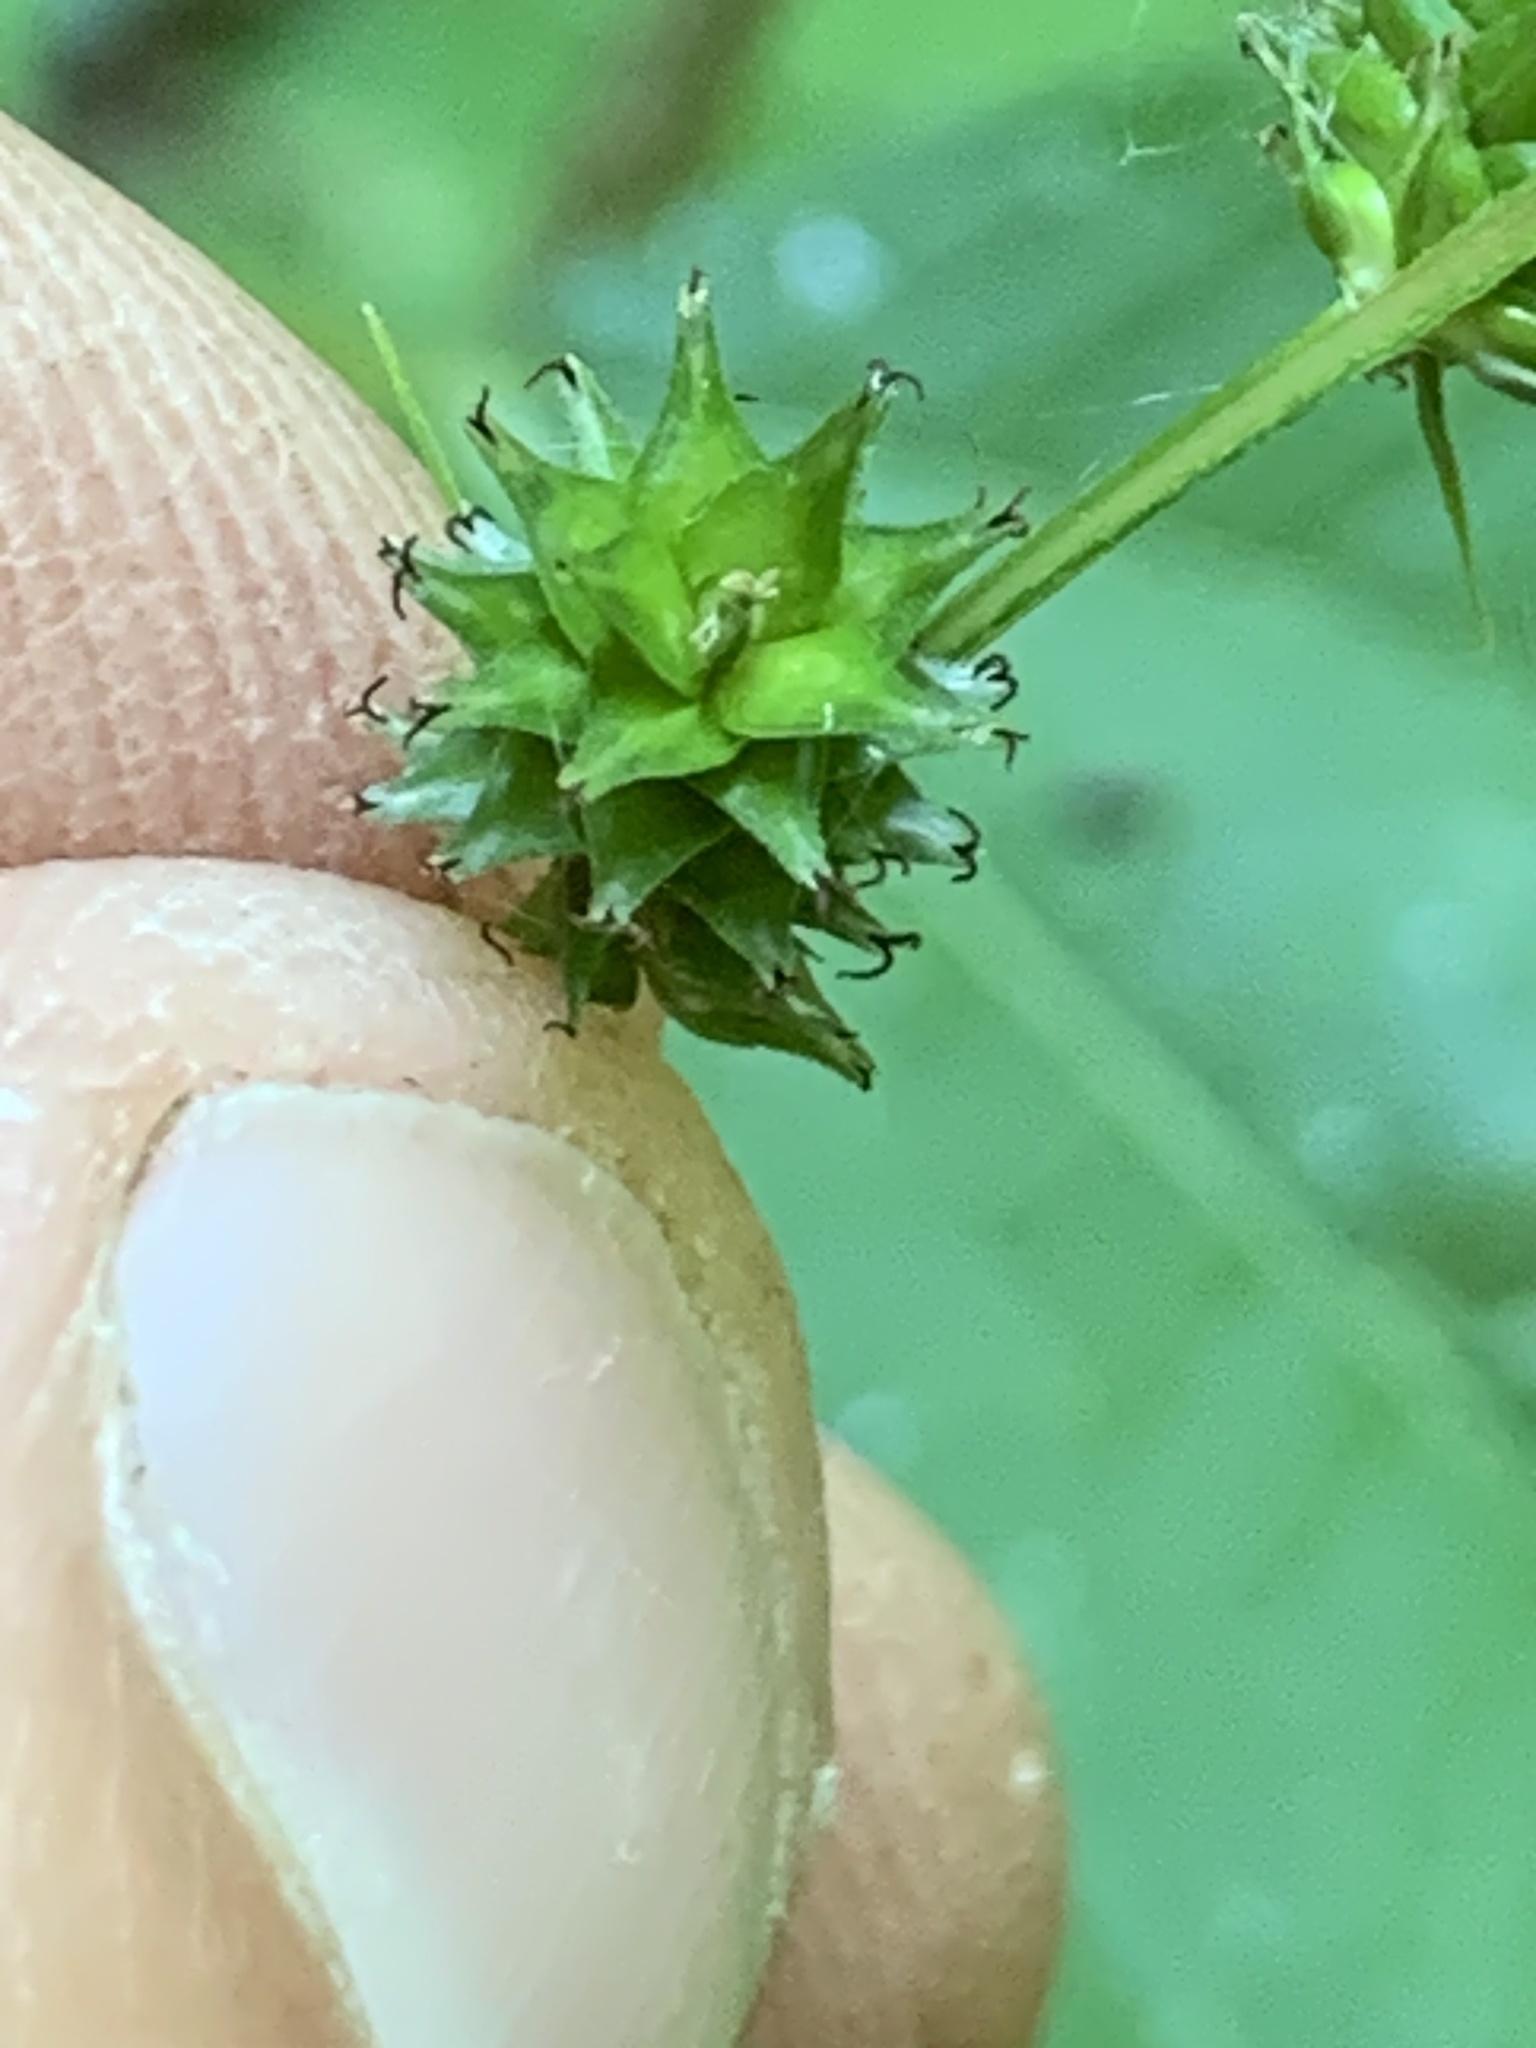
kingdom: Plantae
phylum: Tracheophyta
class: Liliopsida
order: Poales
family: Cyperaceae
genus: Carex
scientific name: Carex sparganioides
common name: Burreed sedge
